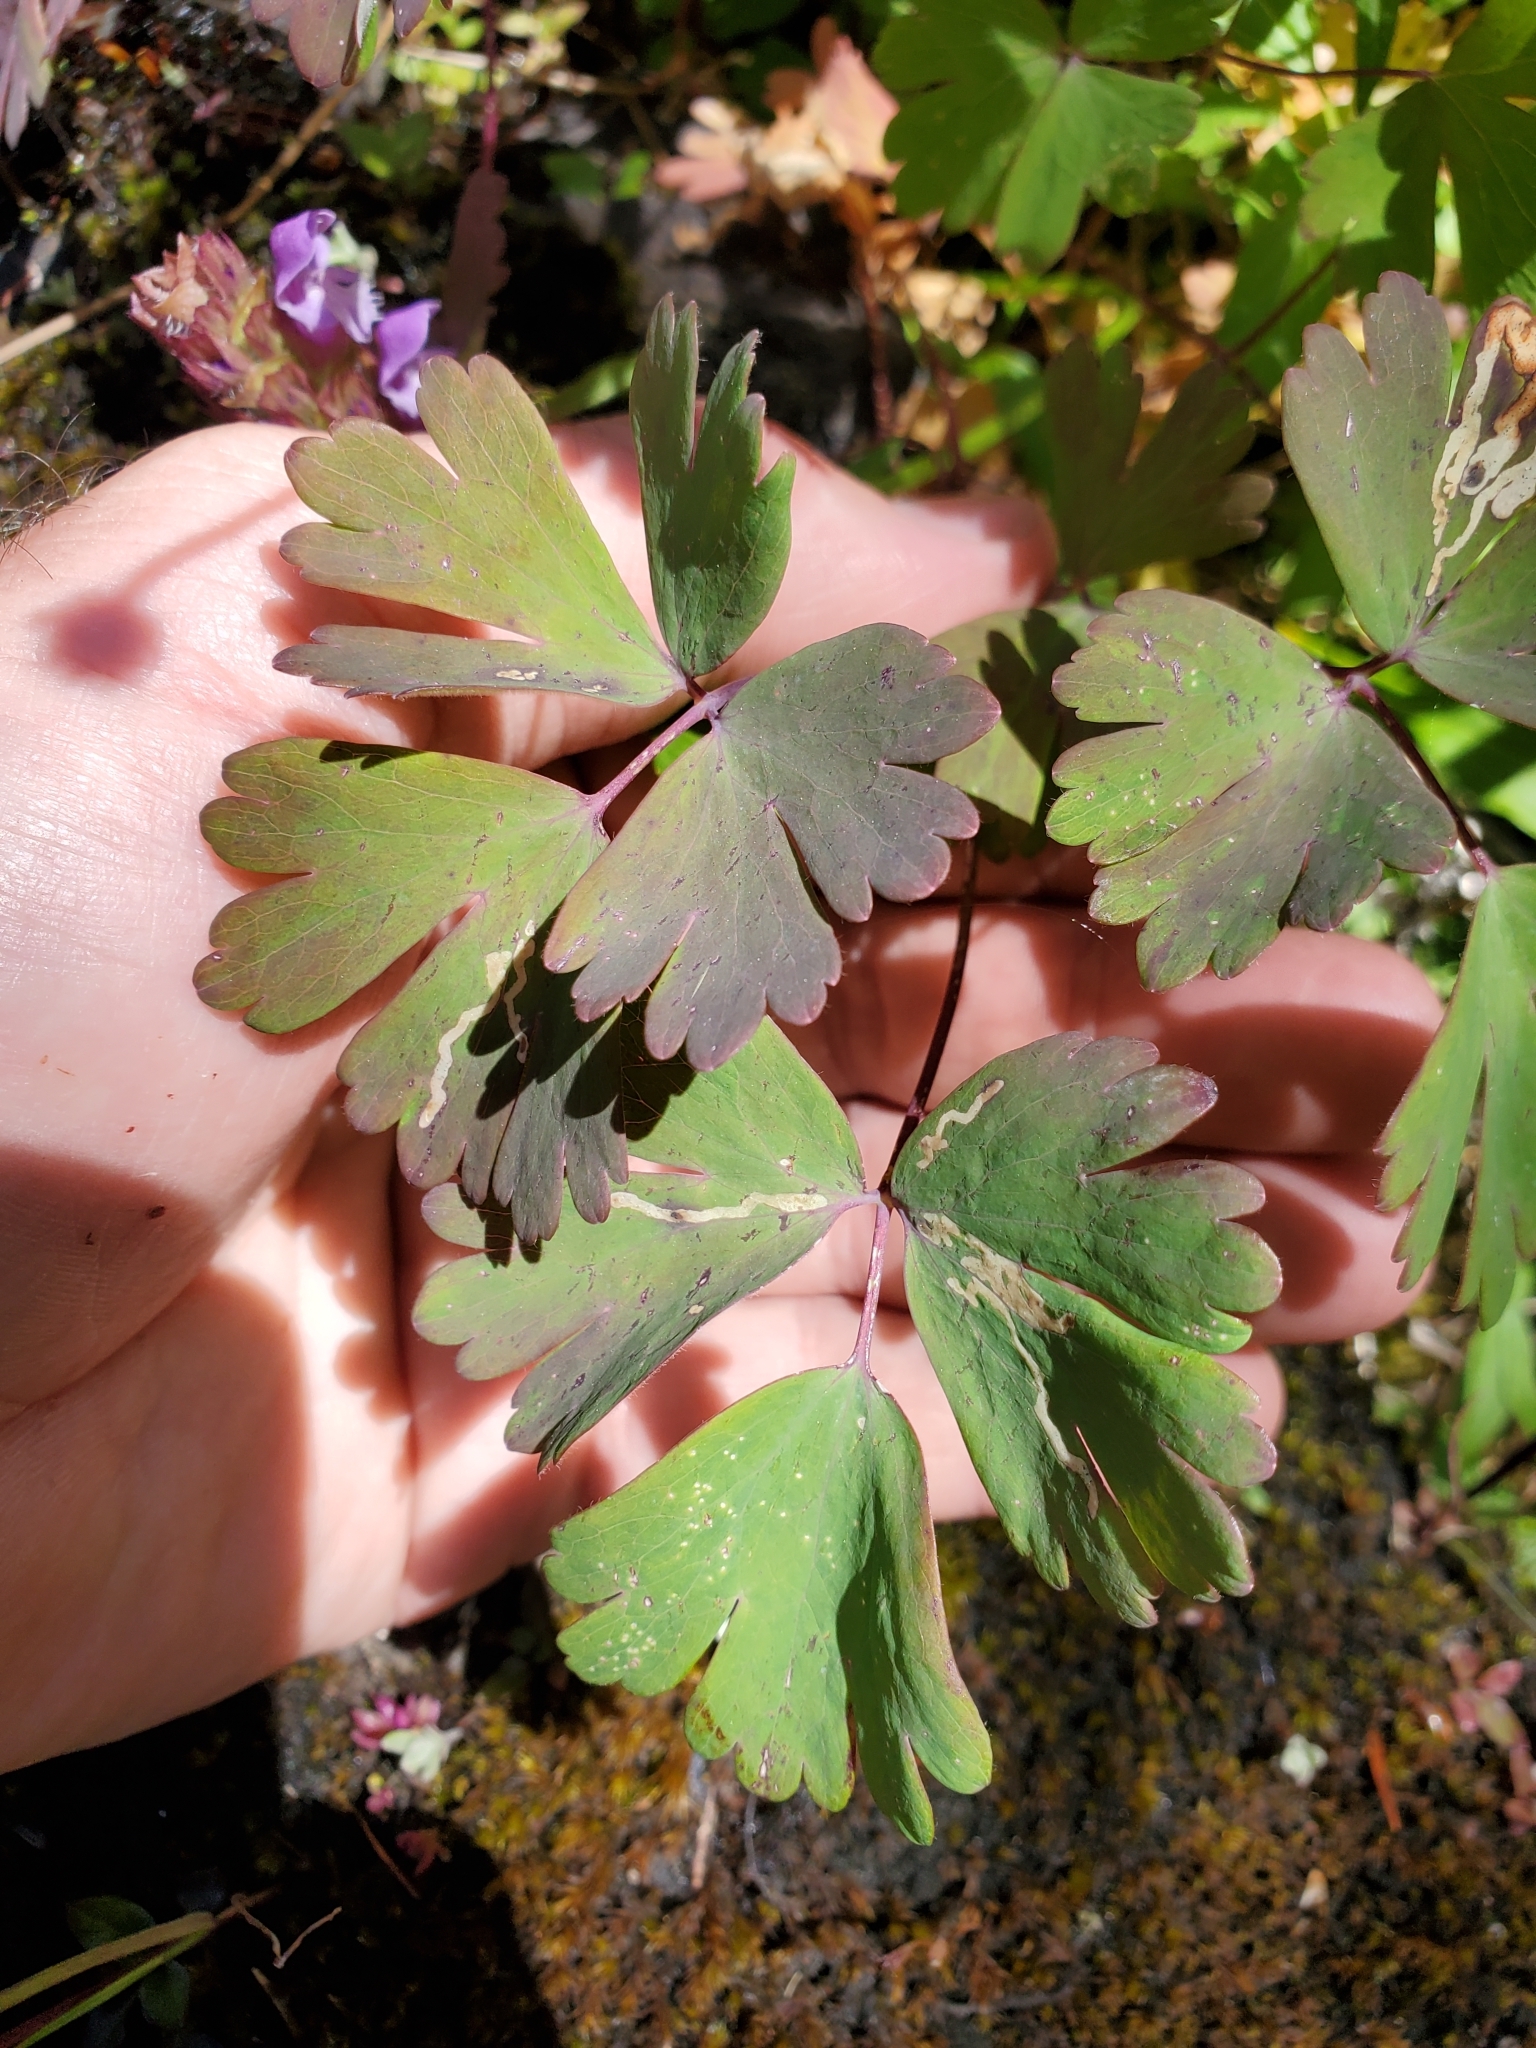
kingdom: Plantae
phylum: Tracheophyta
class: Magnoliopsida
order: Ranunculales
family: Ranunculaceae
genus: Aquilegia
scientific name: Aquilegia formosa
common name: Sitka columbine
